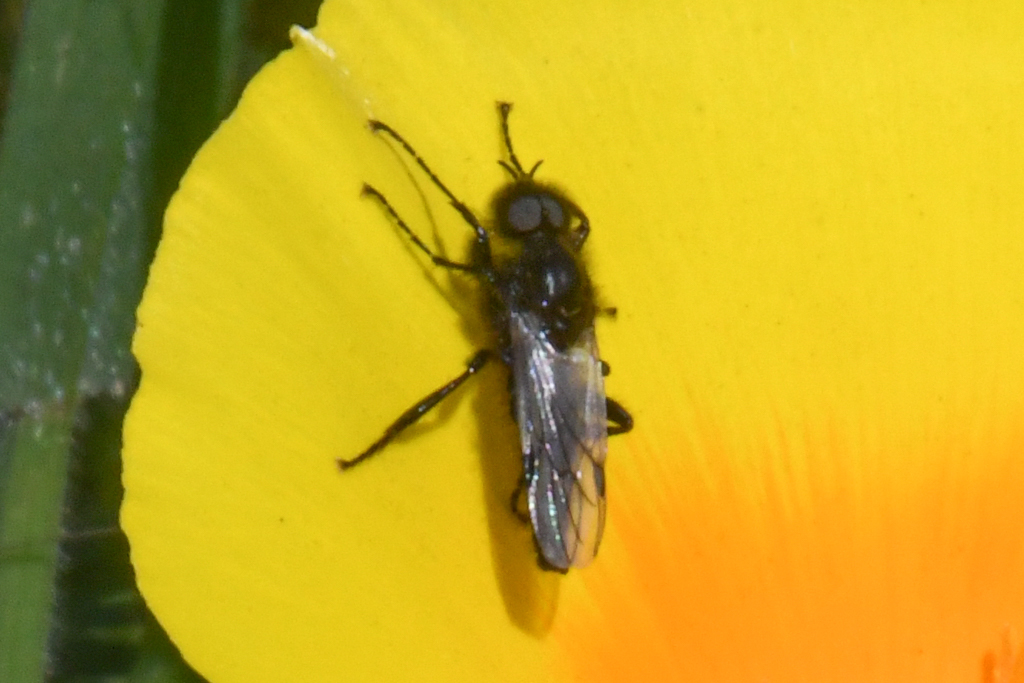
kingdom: Animalia
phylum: Arthropoda
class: Insecta
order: Diptera
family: Bibionidae
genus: Bibio
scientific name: Bibio necotus
